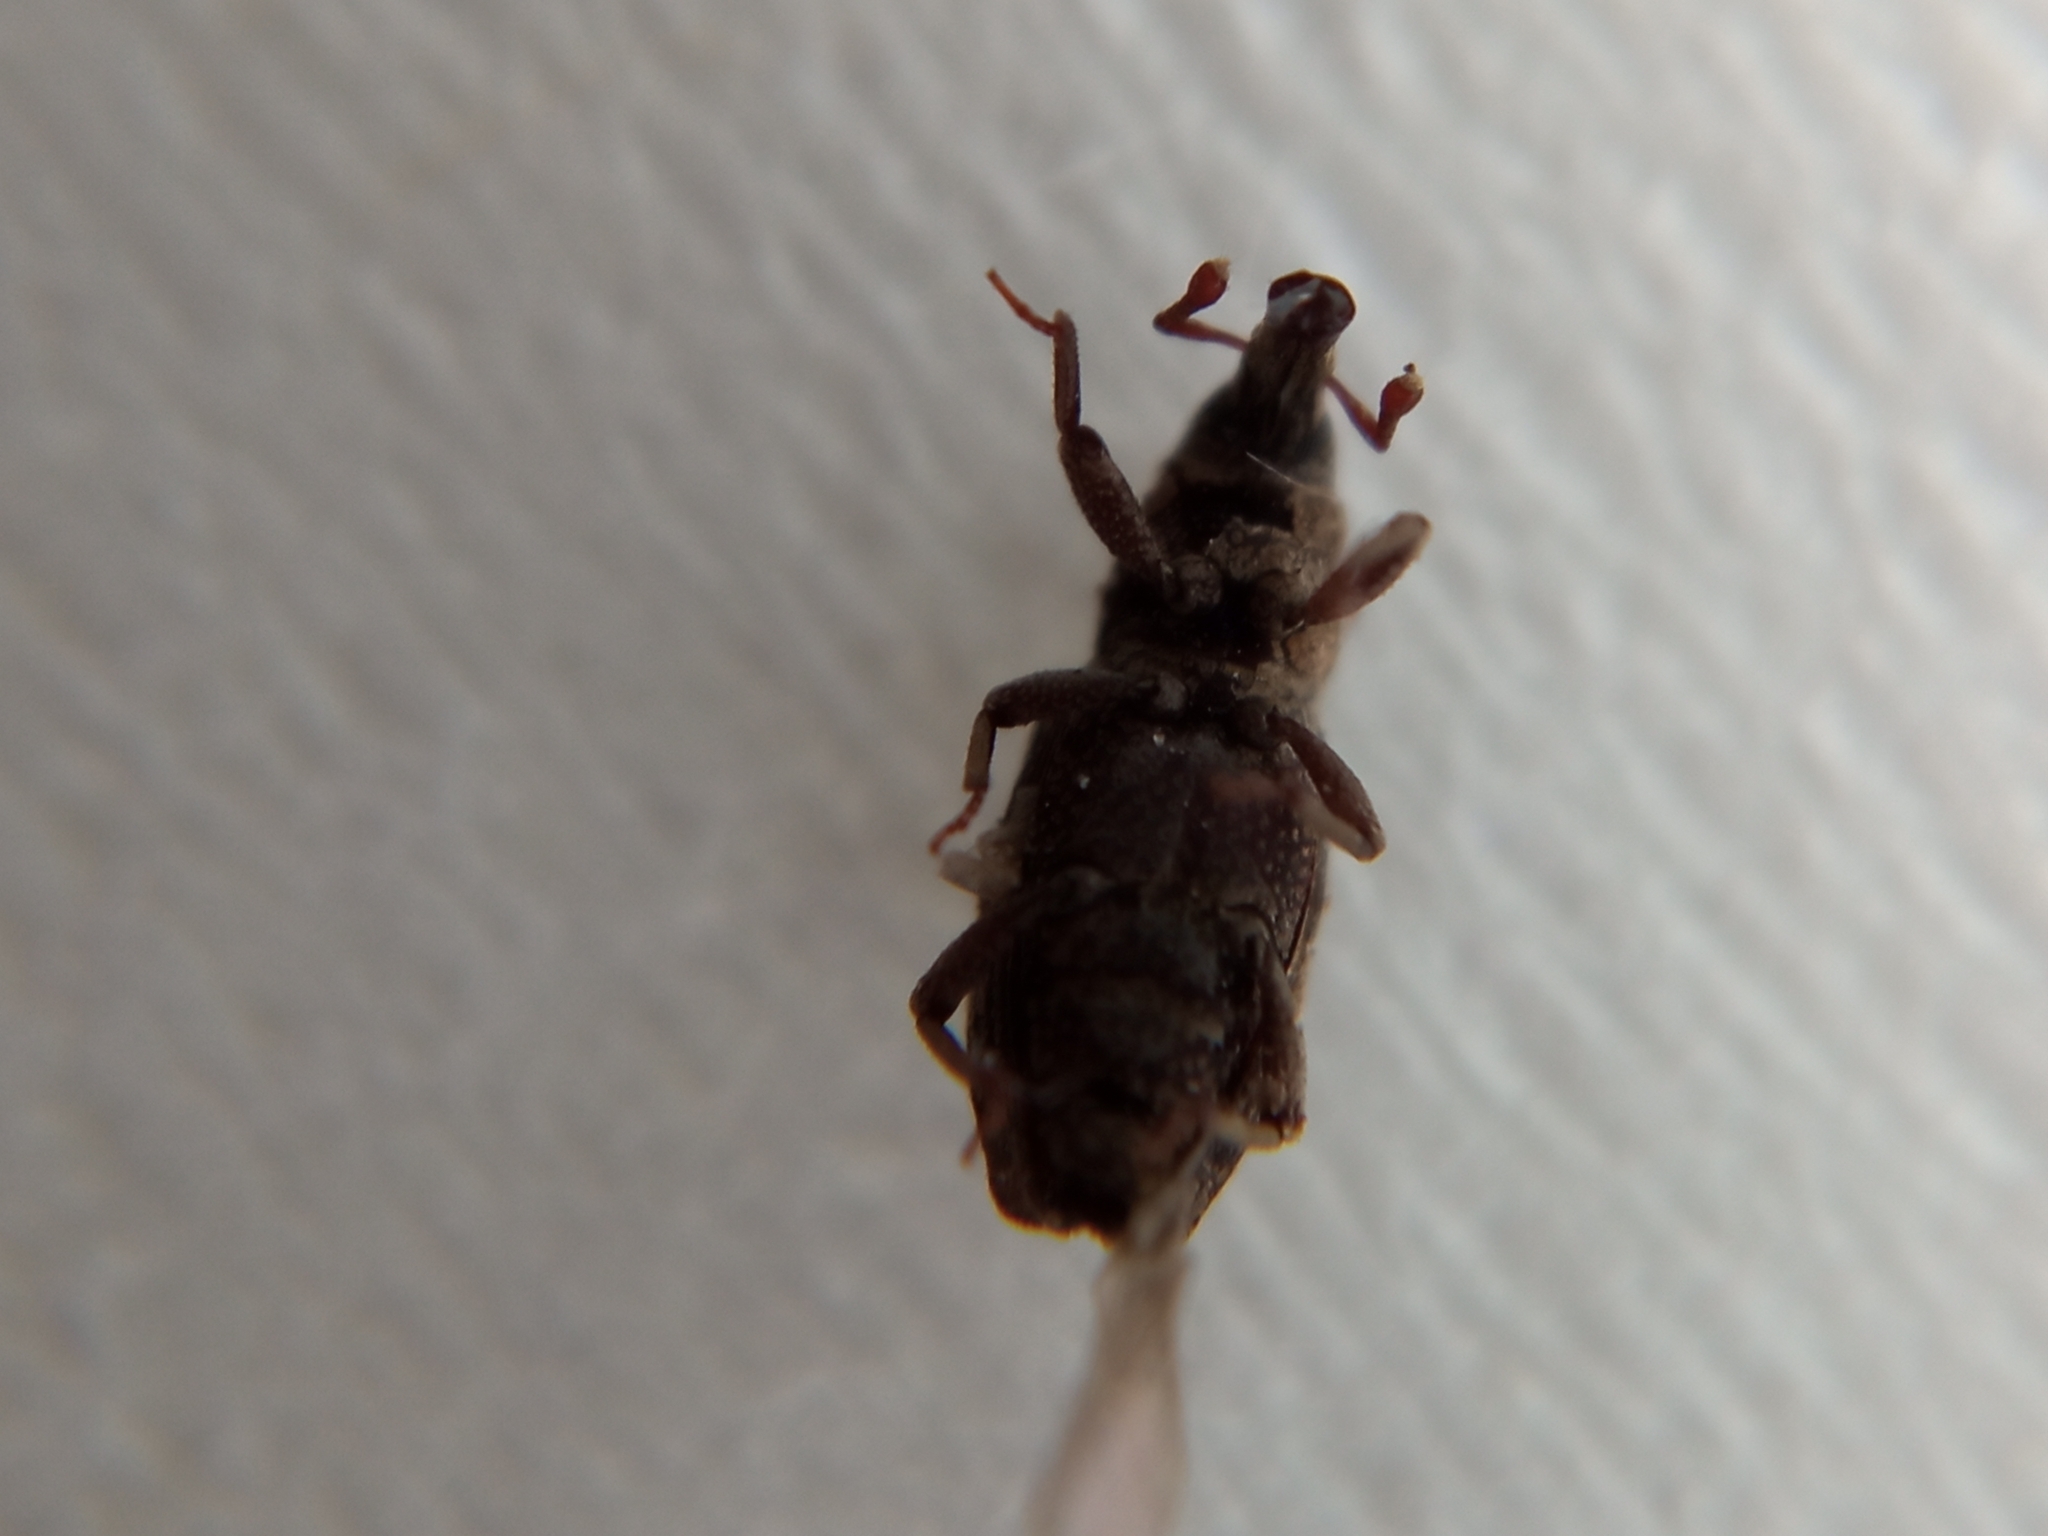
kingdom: Animalia
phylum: Arthropoda
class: Insecta
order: Coleoptera
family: Dryophthoridae
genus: Dryophthorus
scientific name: Dryophthorus corticalis
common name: Wood-boring weevil
